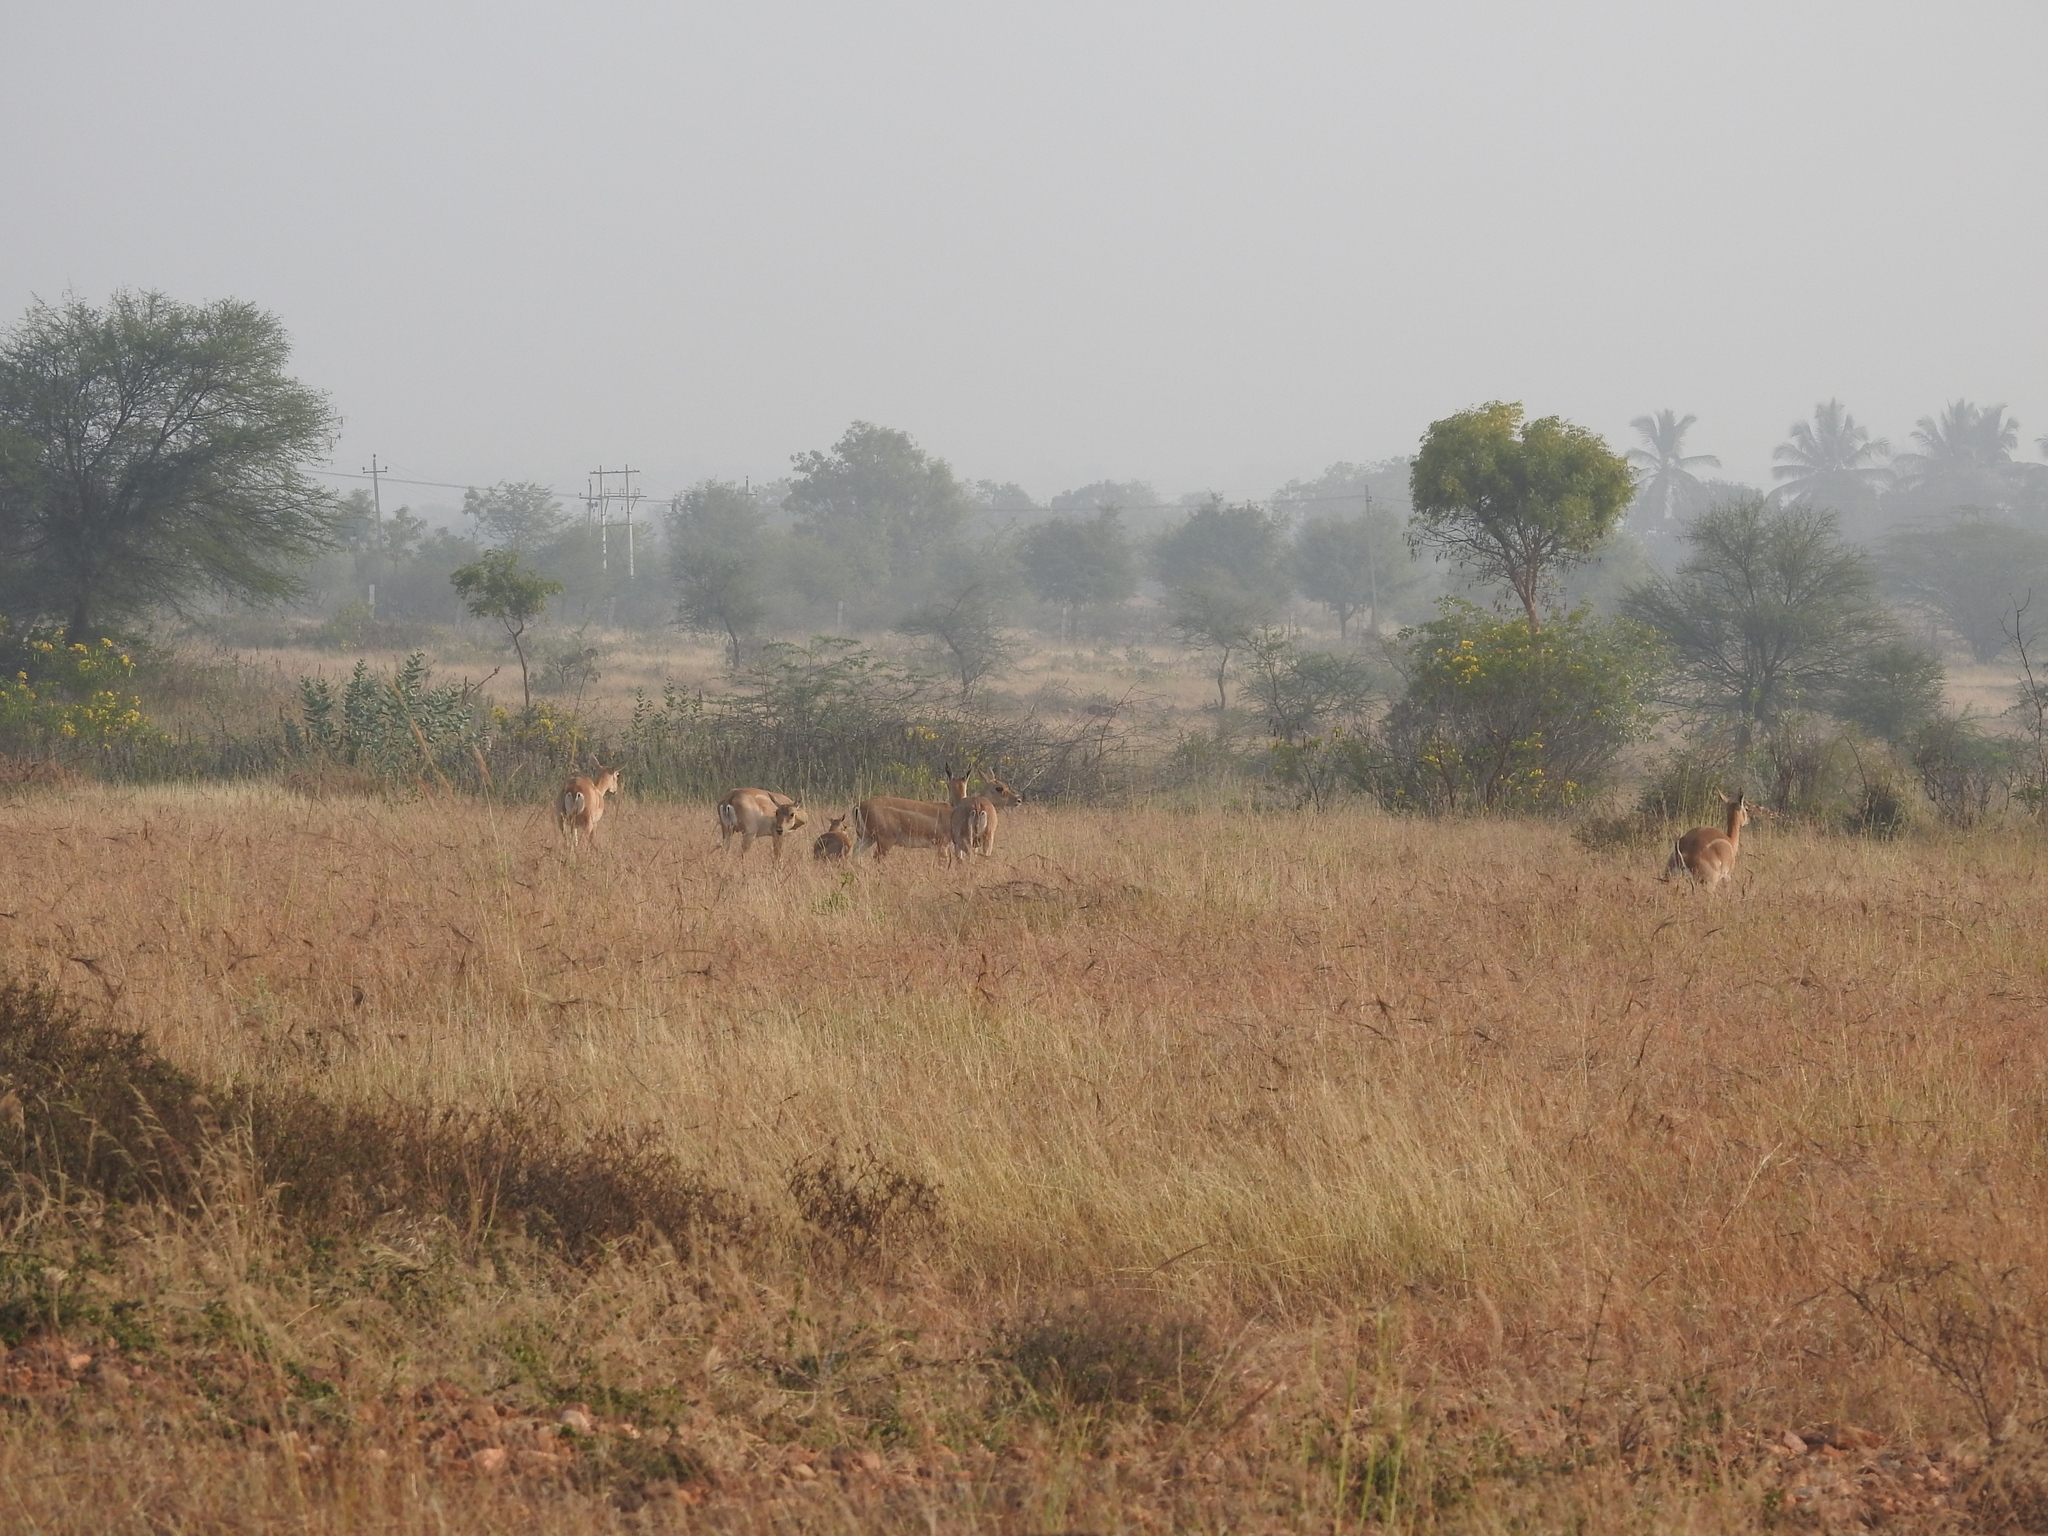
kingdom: Animalia
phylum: Chordata
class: Mammalia
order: Artiodactyla
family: Bovidae
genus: Antilope
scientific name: Antilope cervicapra
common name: Blackbuck
